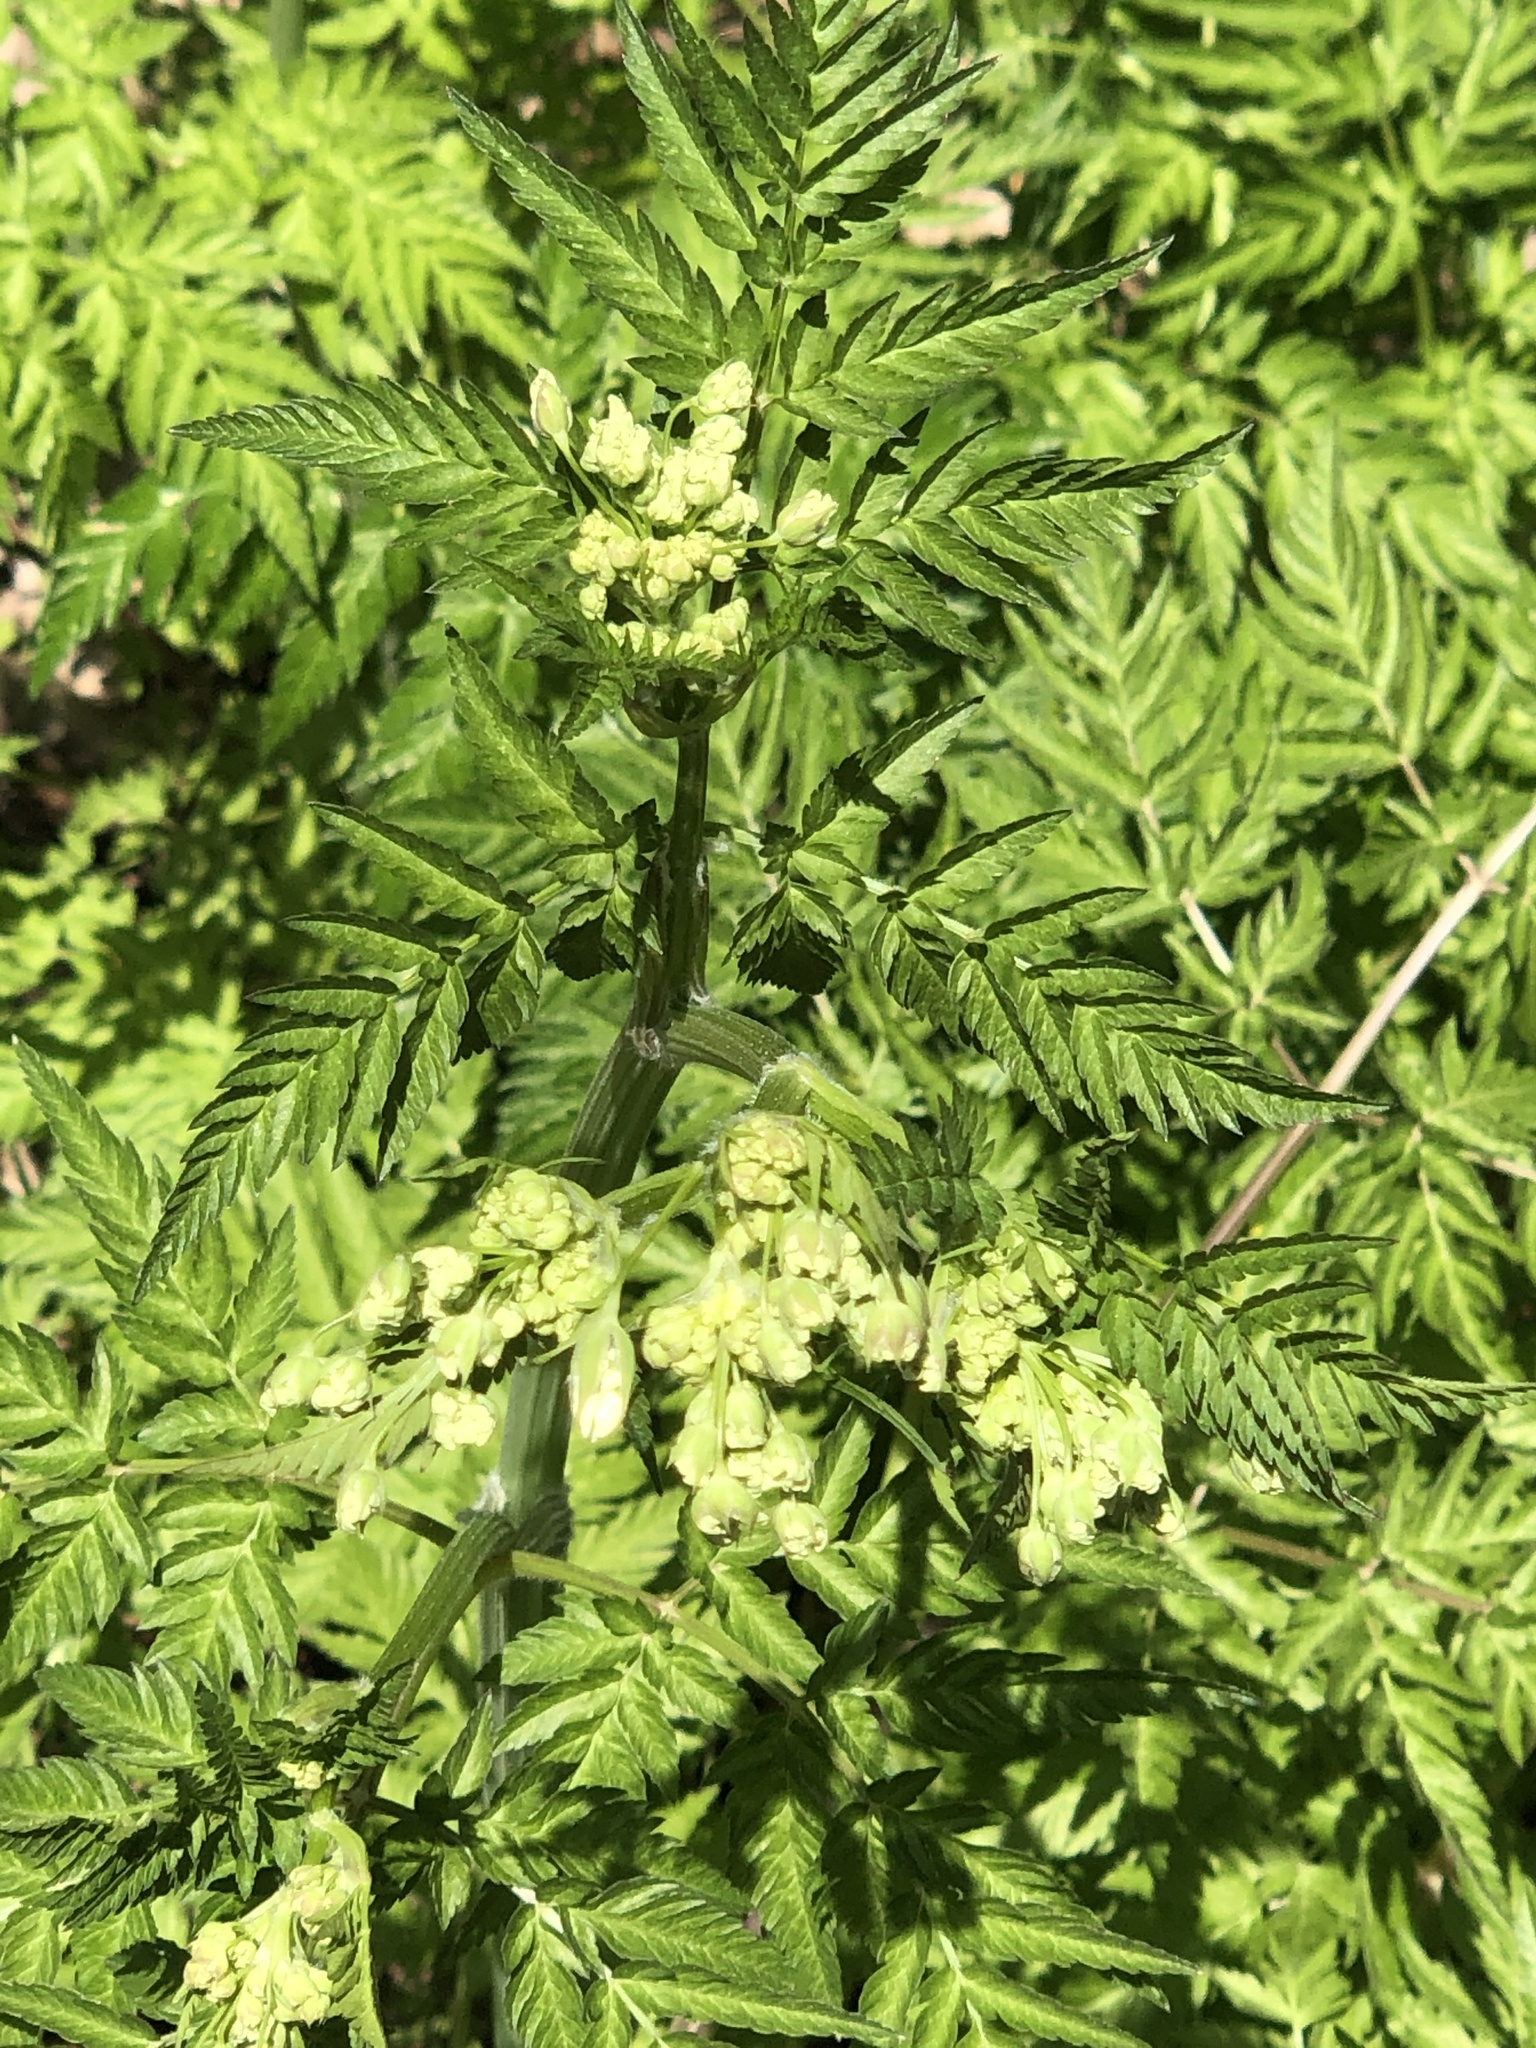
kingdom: Plantae
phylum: Tracheophyta
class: Magnoliopsida
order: Apiales
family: Apiaceae
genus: Anthriscus
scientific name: Anthriscus sylvestris
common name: Cow parsley
